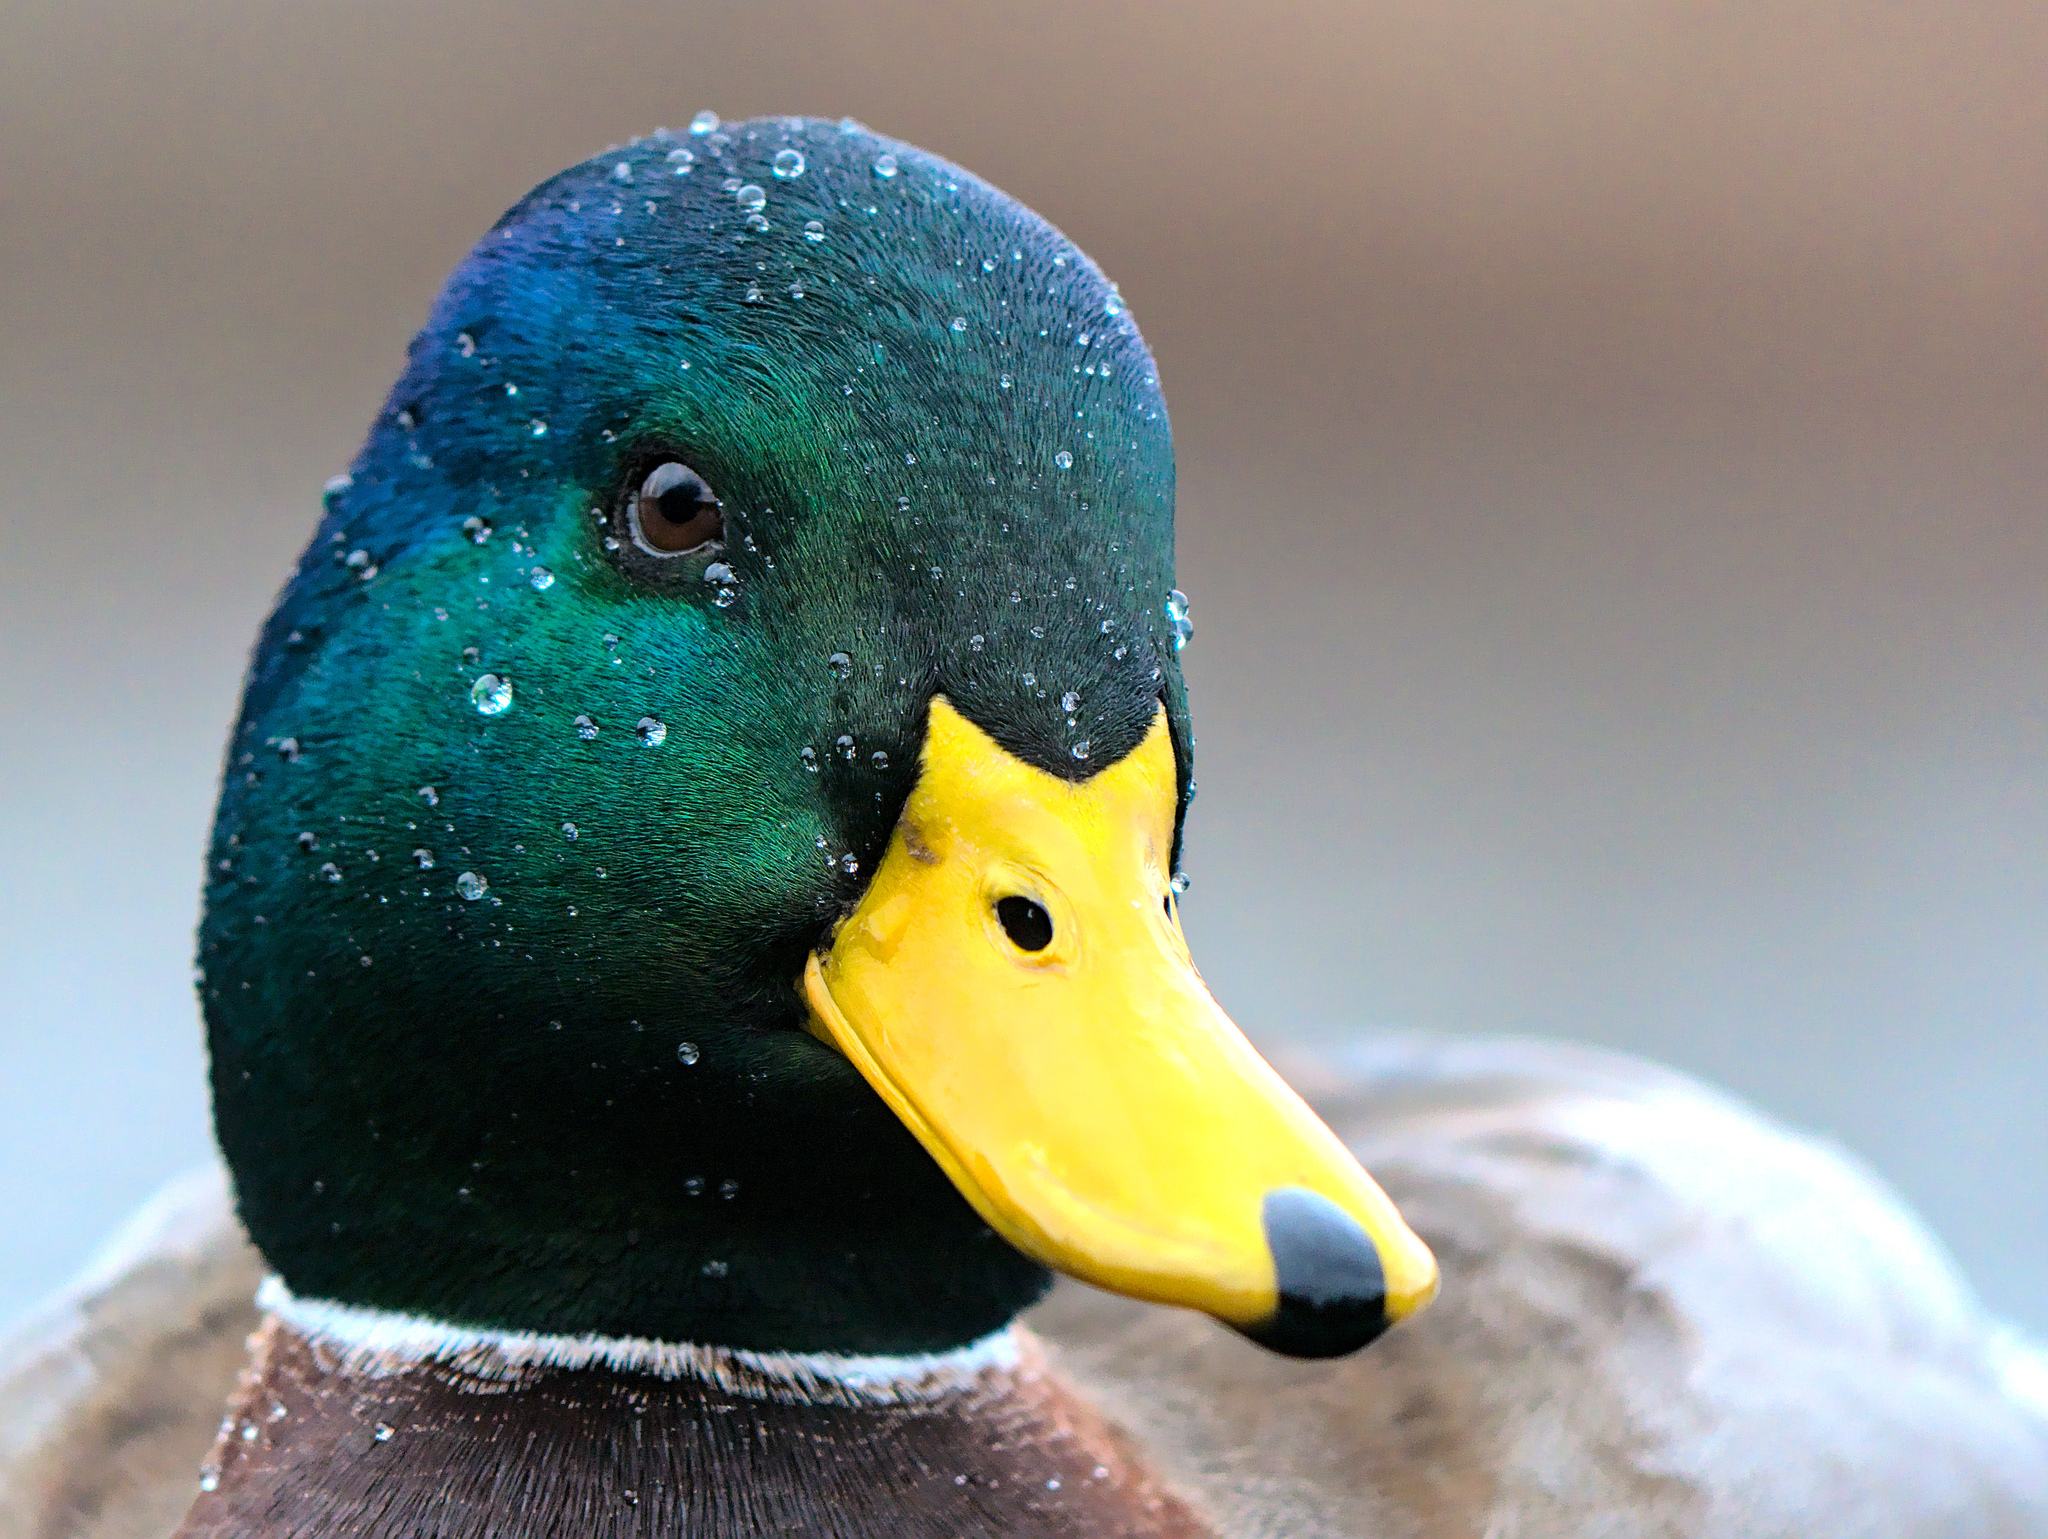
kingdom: Animalia
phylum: Chordata
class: Aves
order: Anseriformes
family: Anatidae
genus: Anas
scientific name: Anas platyrhynchos
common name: Mallard
